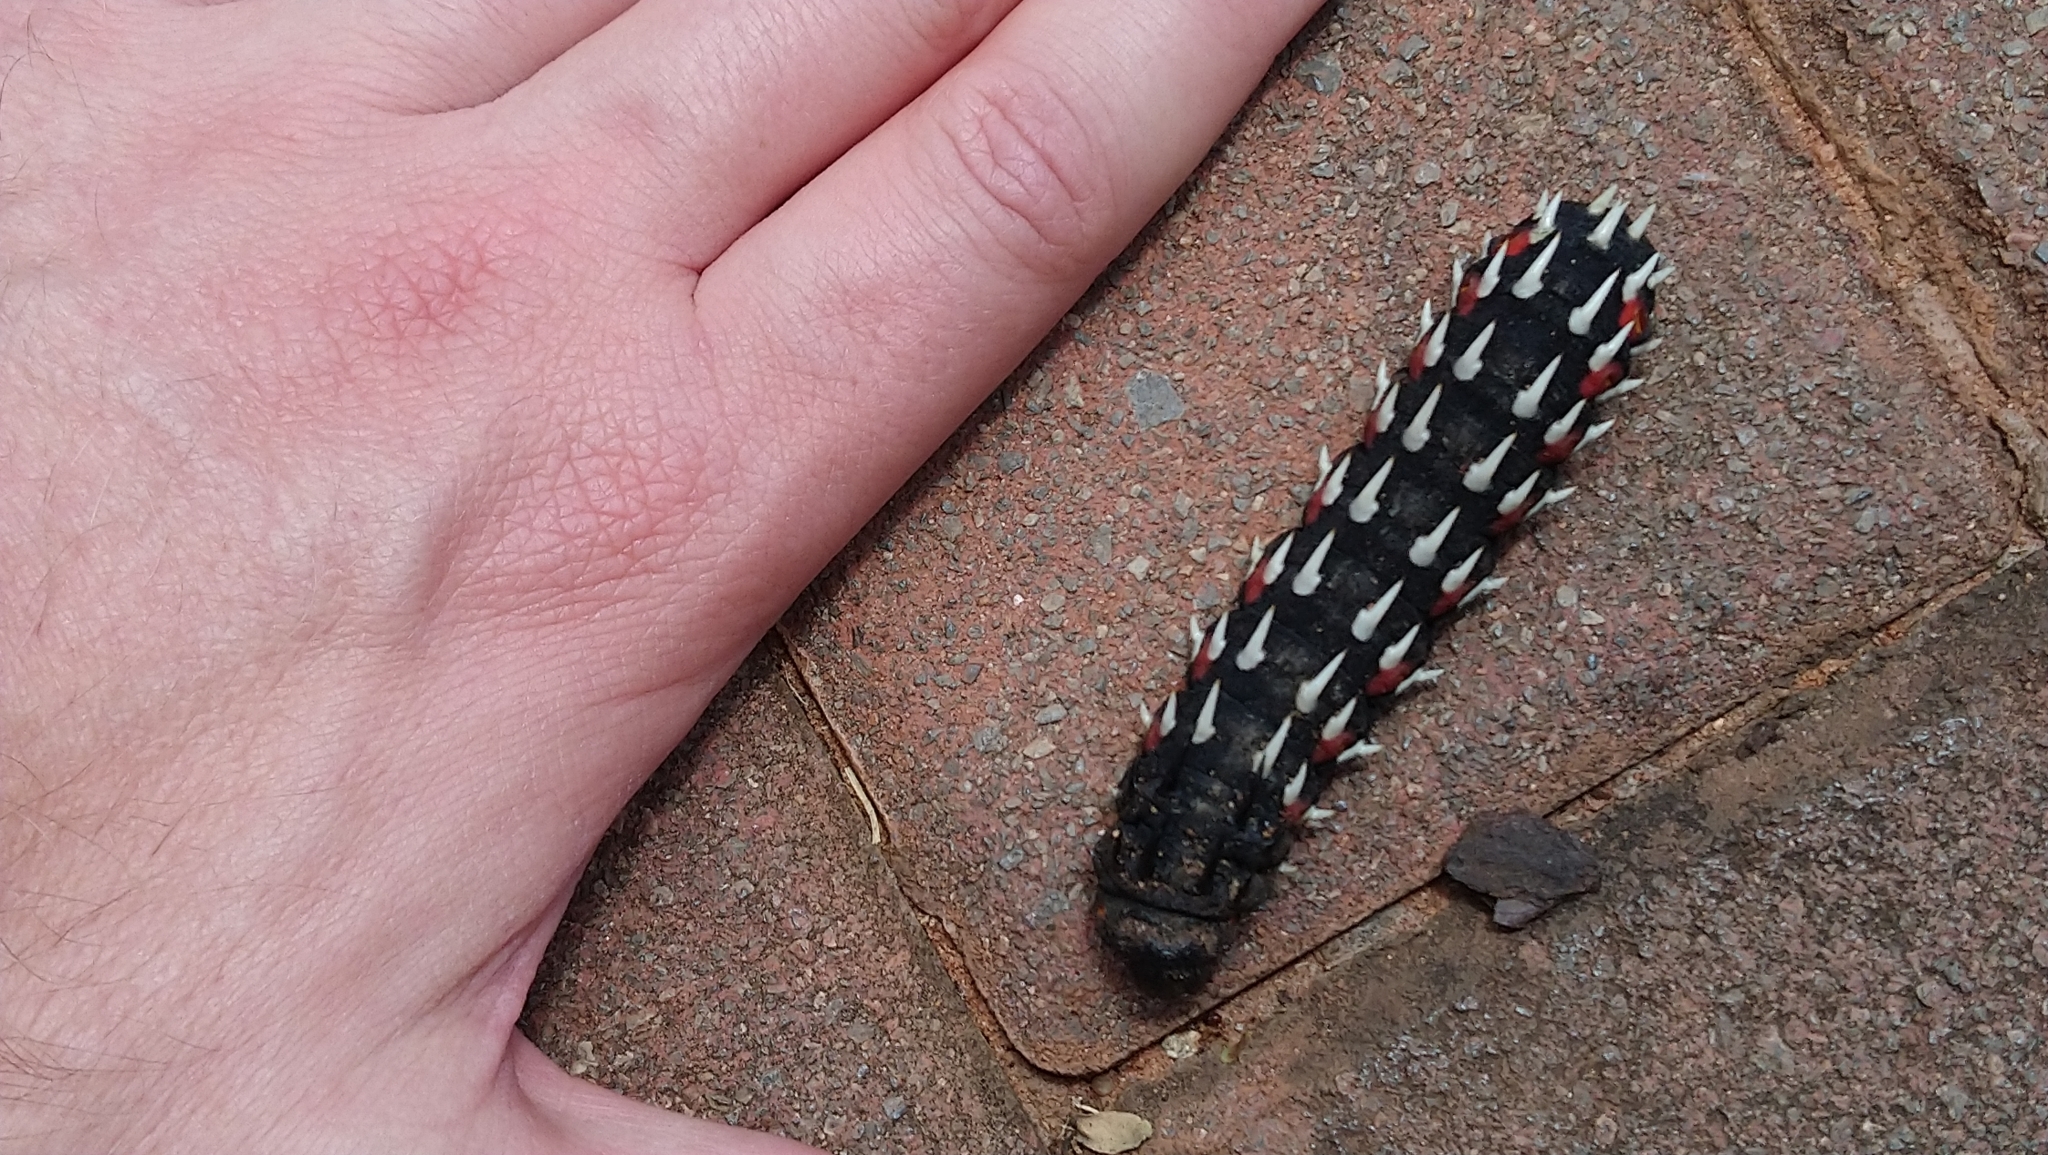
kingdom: Animalia
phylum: Arthropoda
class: Insecta
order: Lepidoptera
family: Saturniidae
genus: Bunaea
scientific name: Bunaea alcinoe
